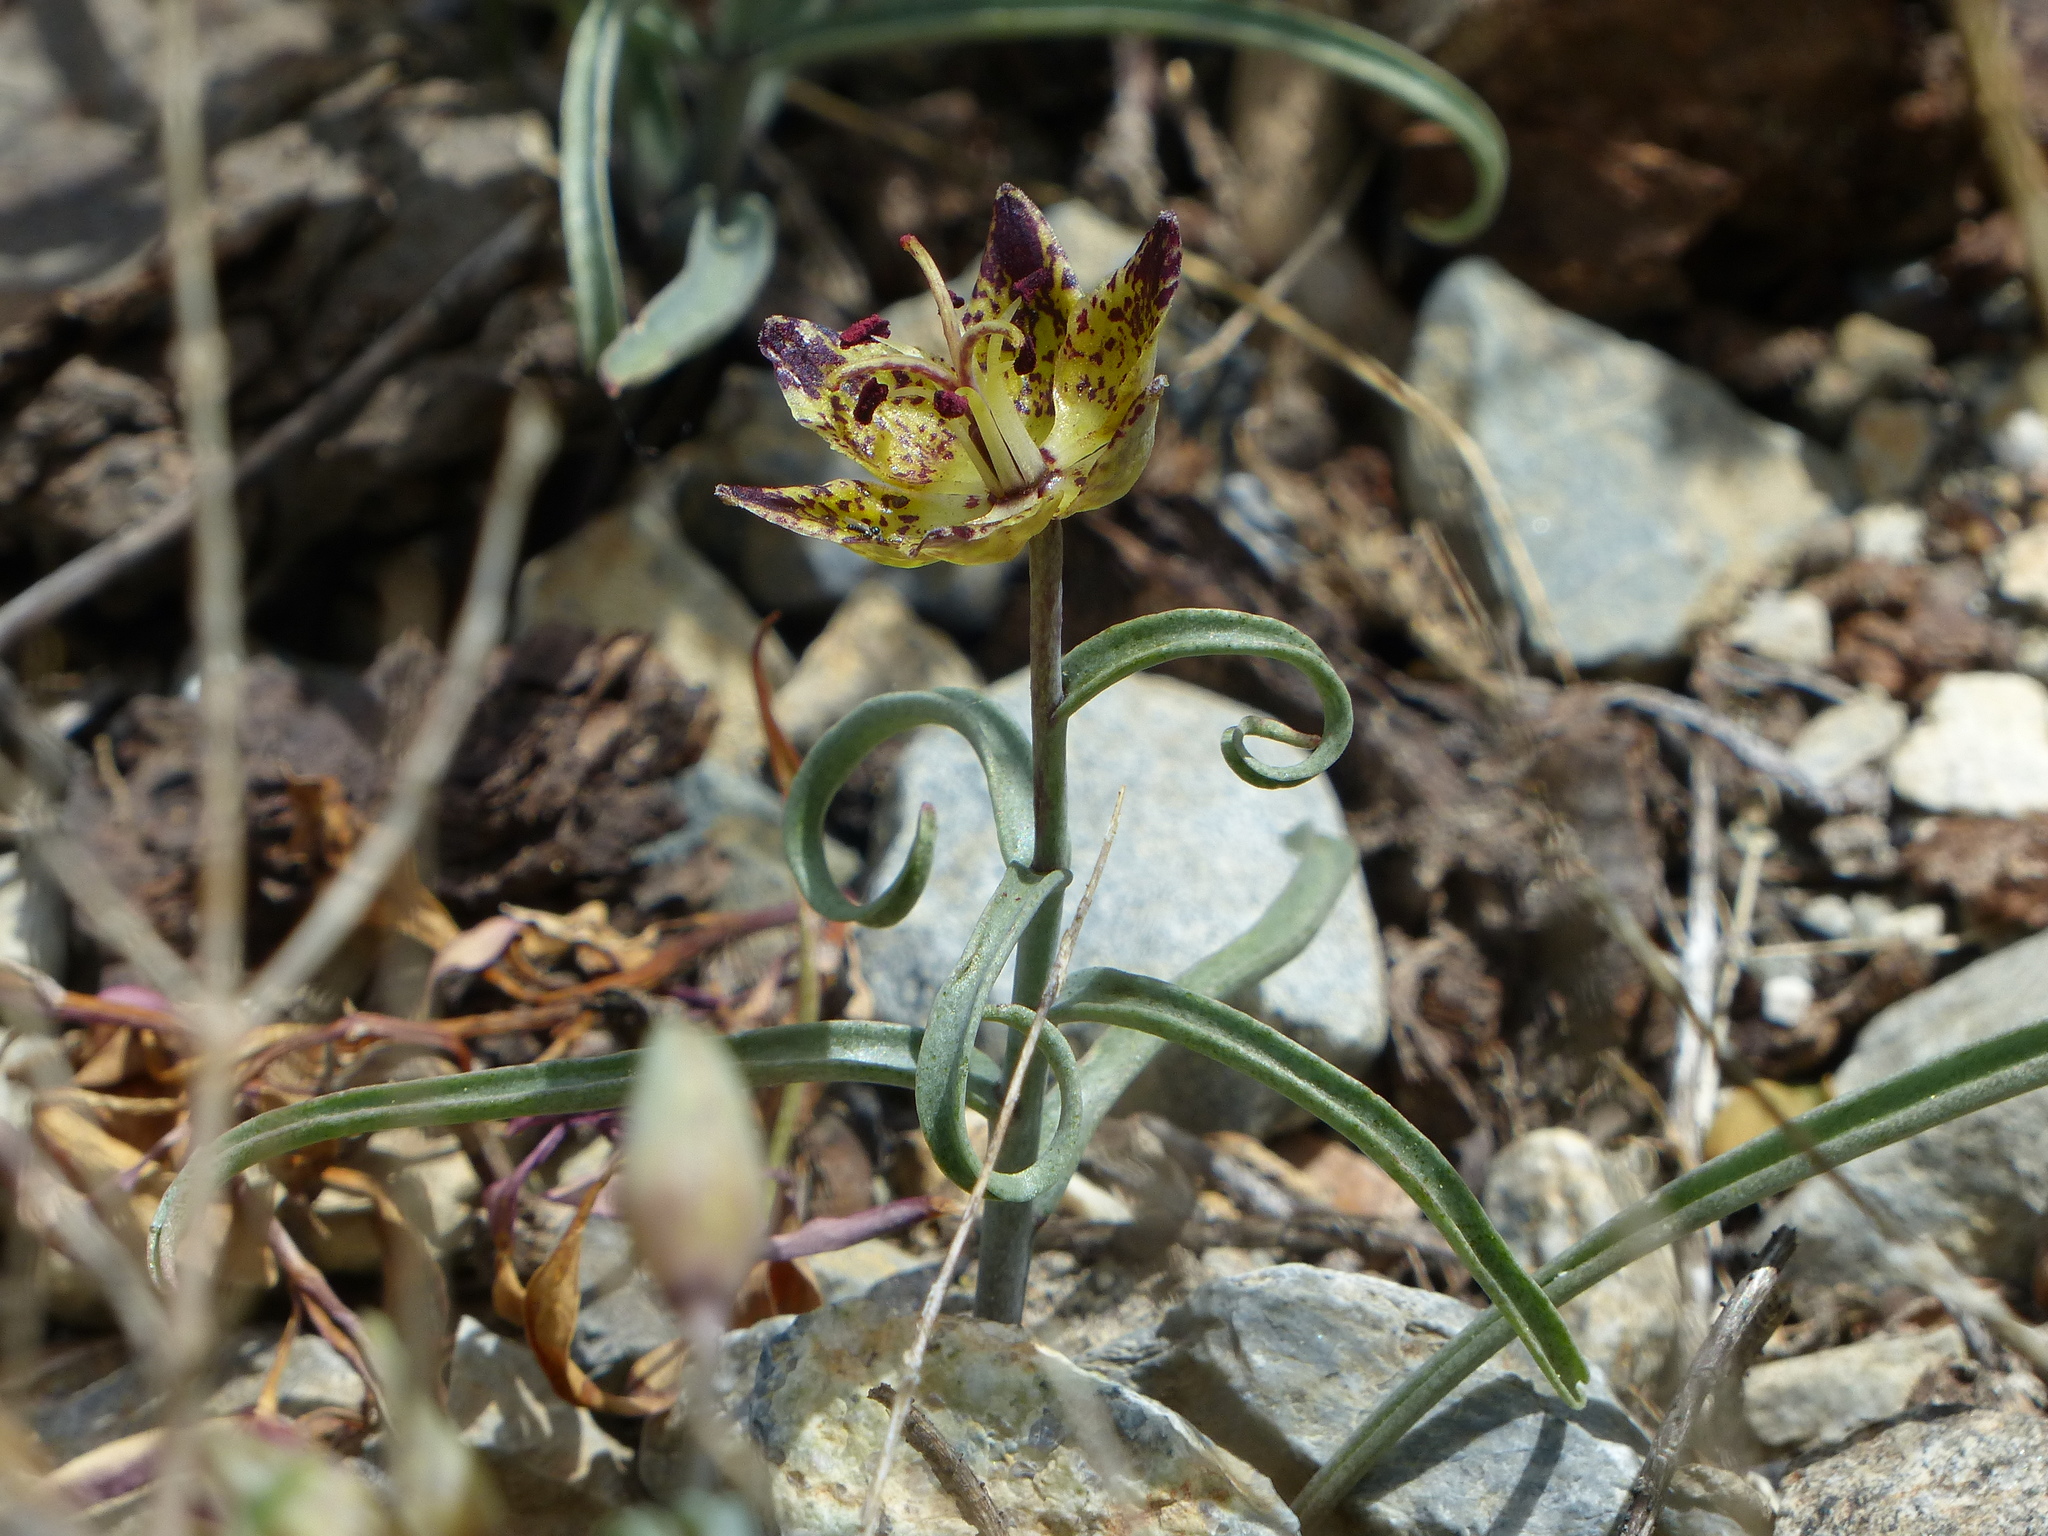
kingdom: Plantae
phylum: Tracheophyta
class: Liliopsida
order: Liliales
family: Liliaceae
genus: Fritillaria
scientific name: Fritillaria pinetorum
